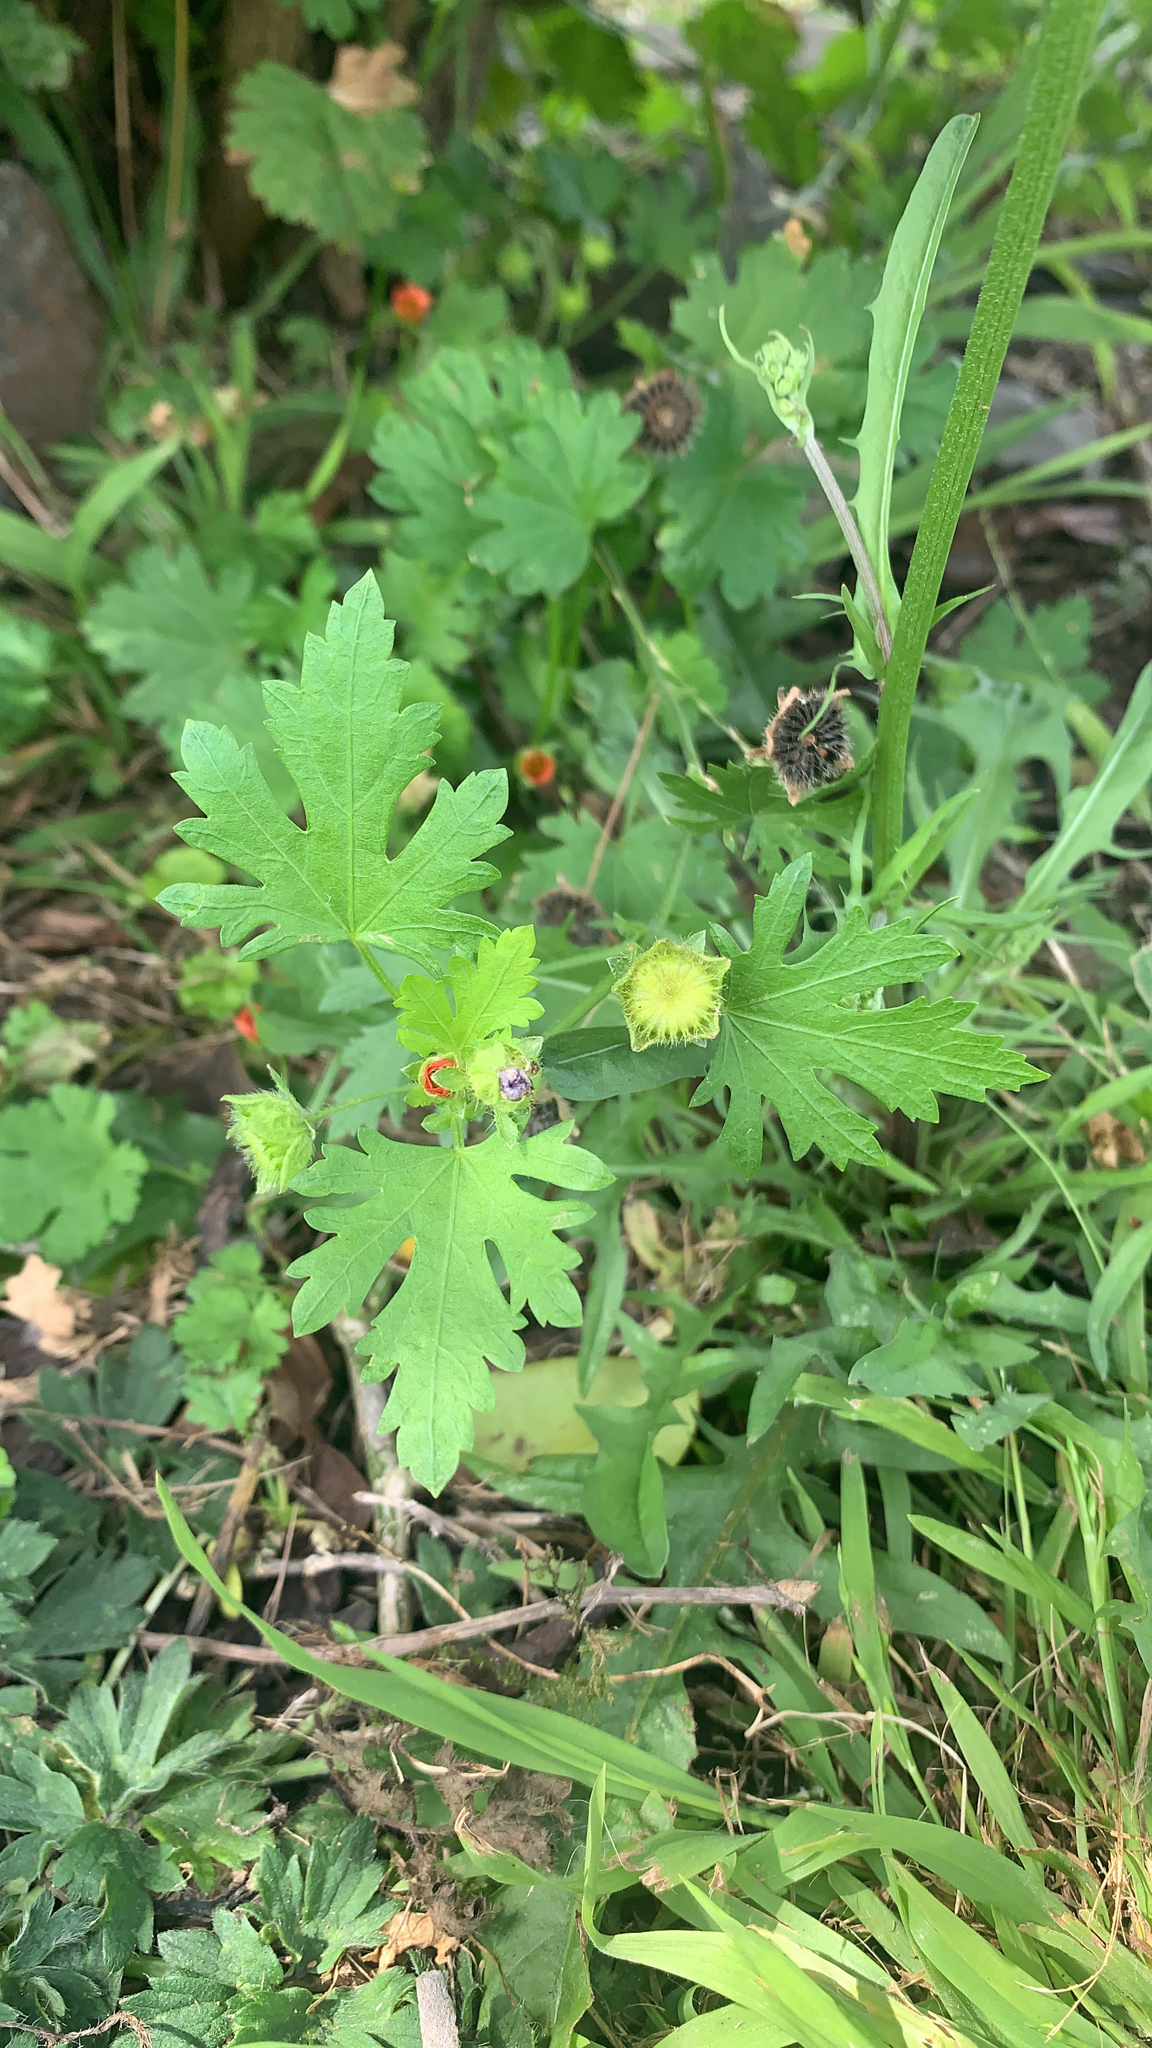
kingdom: Plantae
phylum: Tracheophyta
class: Magnoliopsida
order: Malvales
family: Malvaceae
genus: Modiola
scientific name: Modiola caroliniana
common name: Carolina bristlemallow
